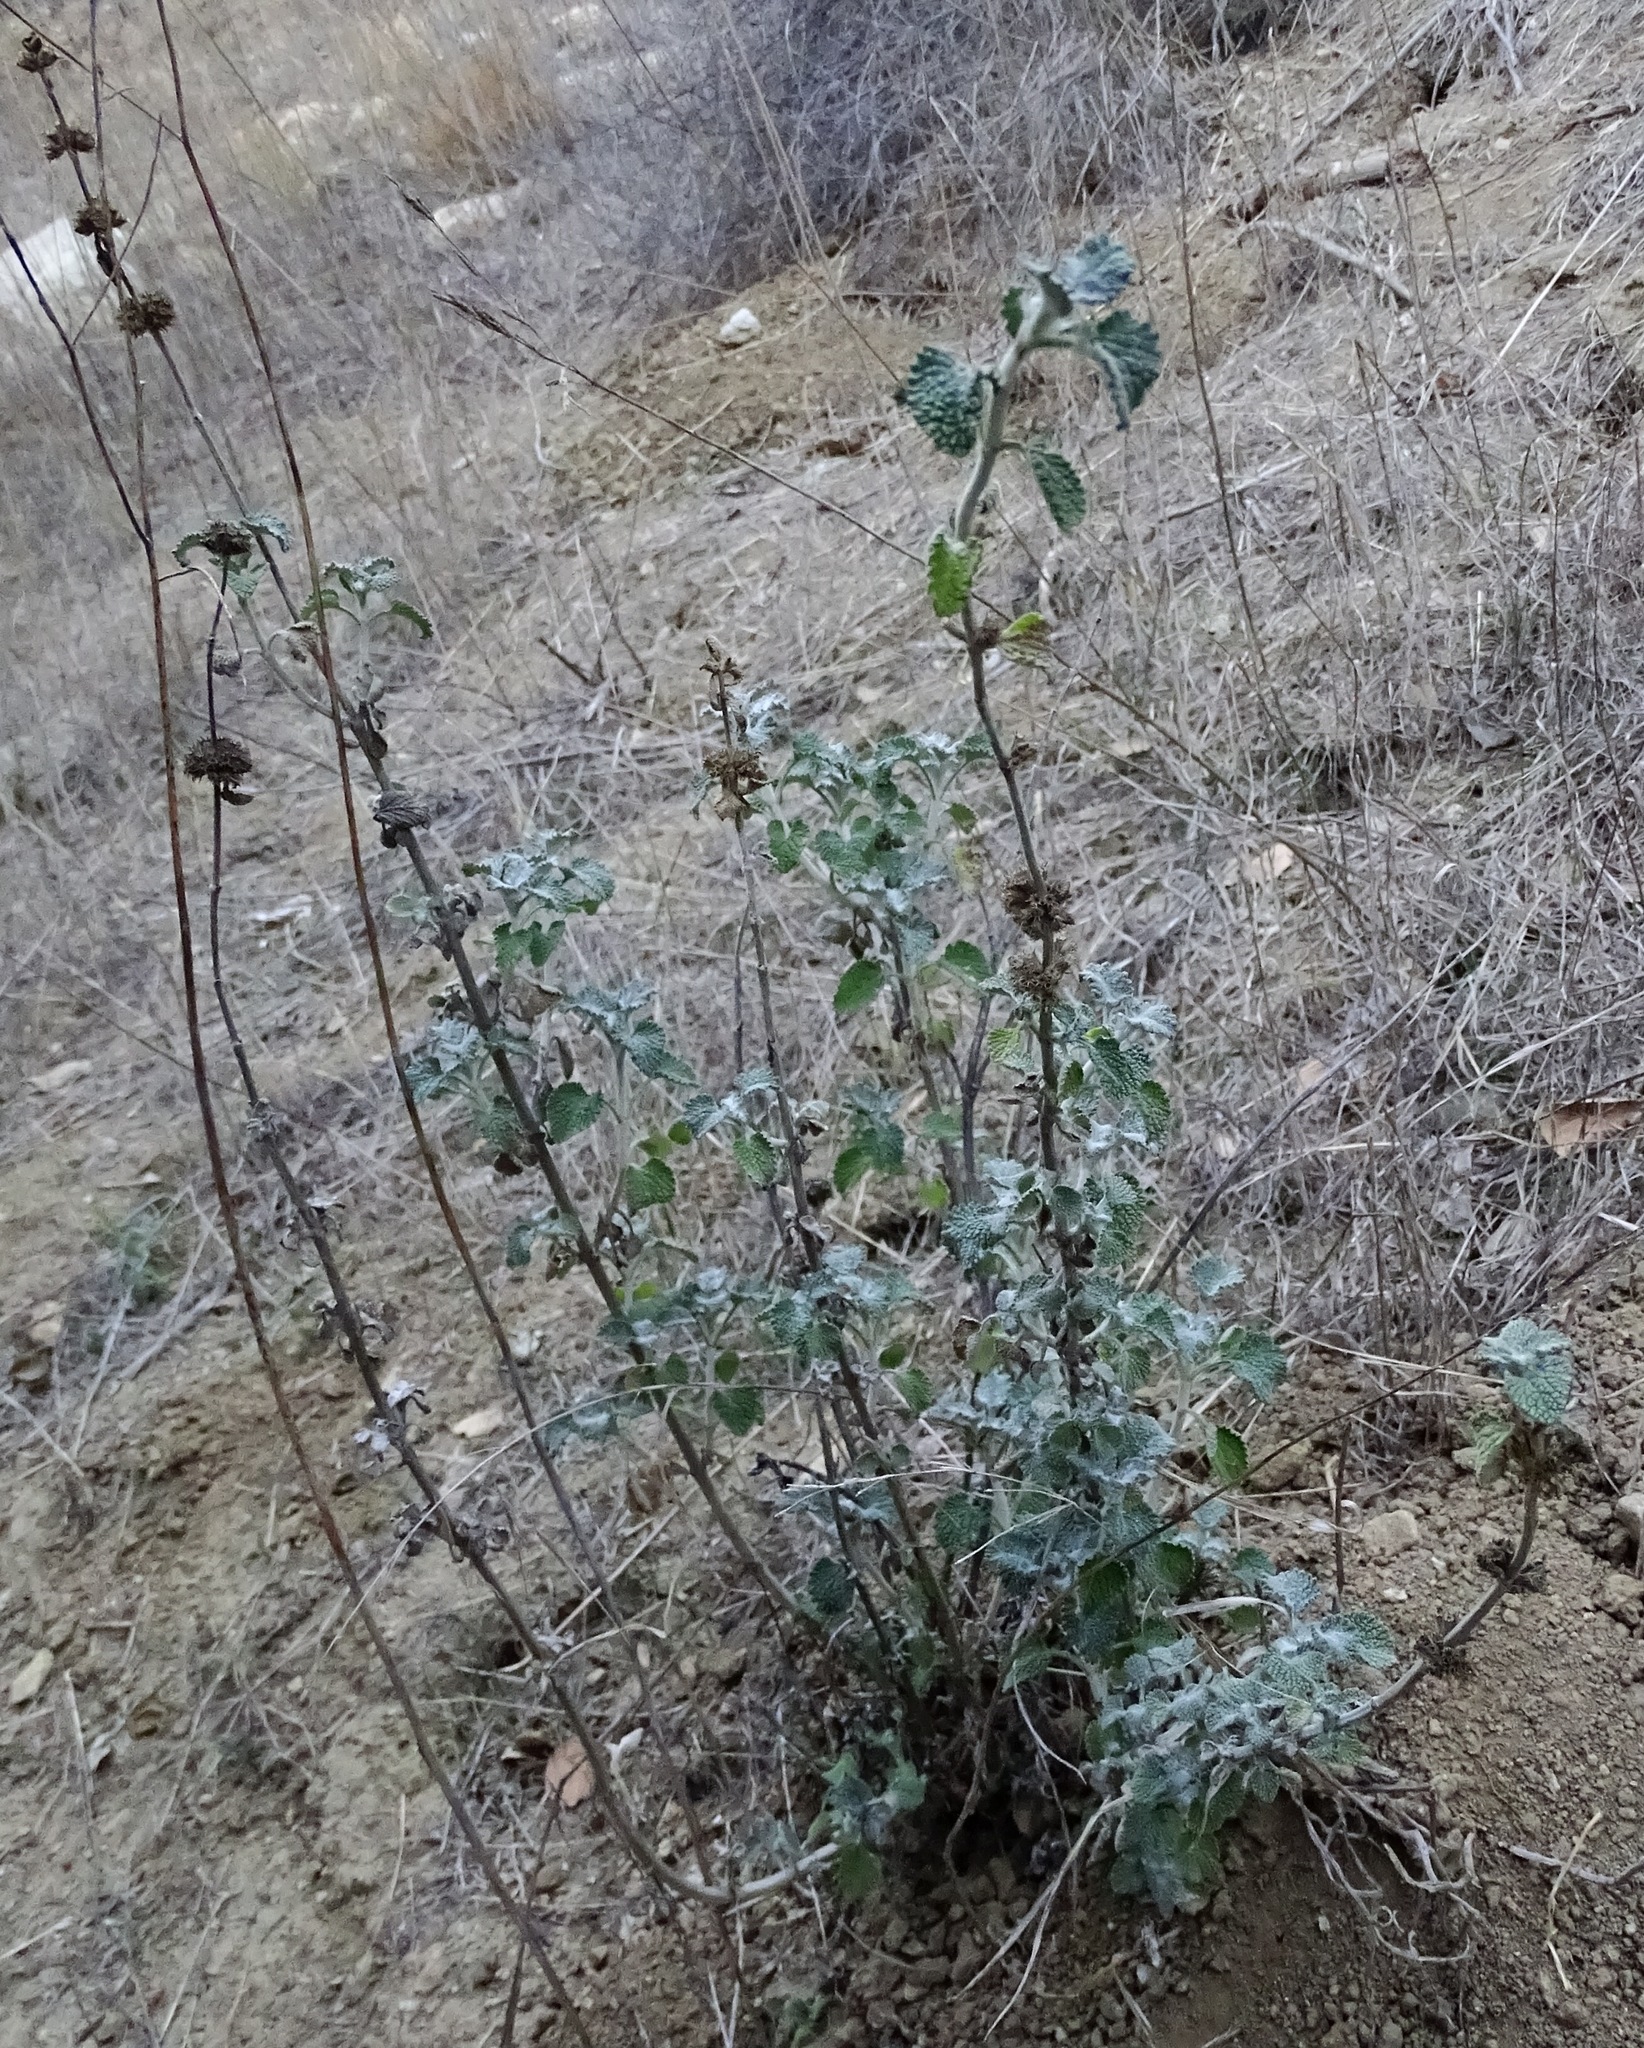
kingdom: Plantae
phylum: Tracheophyta
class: Magnoliopsida
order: Lamiales
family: Lamiaceae
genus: Marrubium
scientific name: Marrubium vulgare
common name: Horehound
